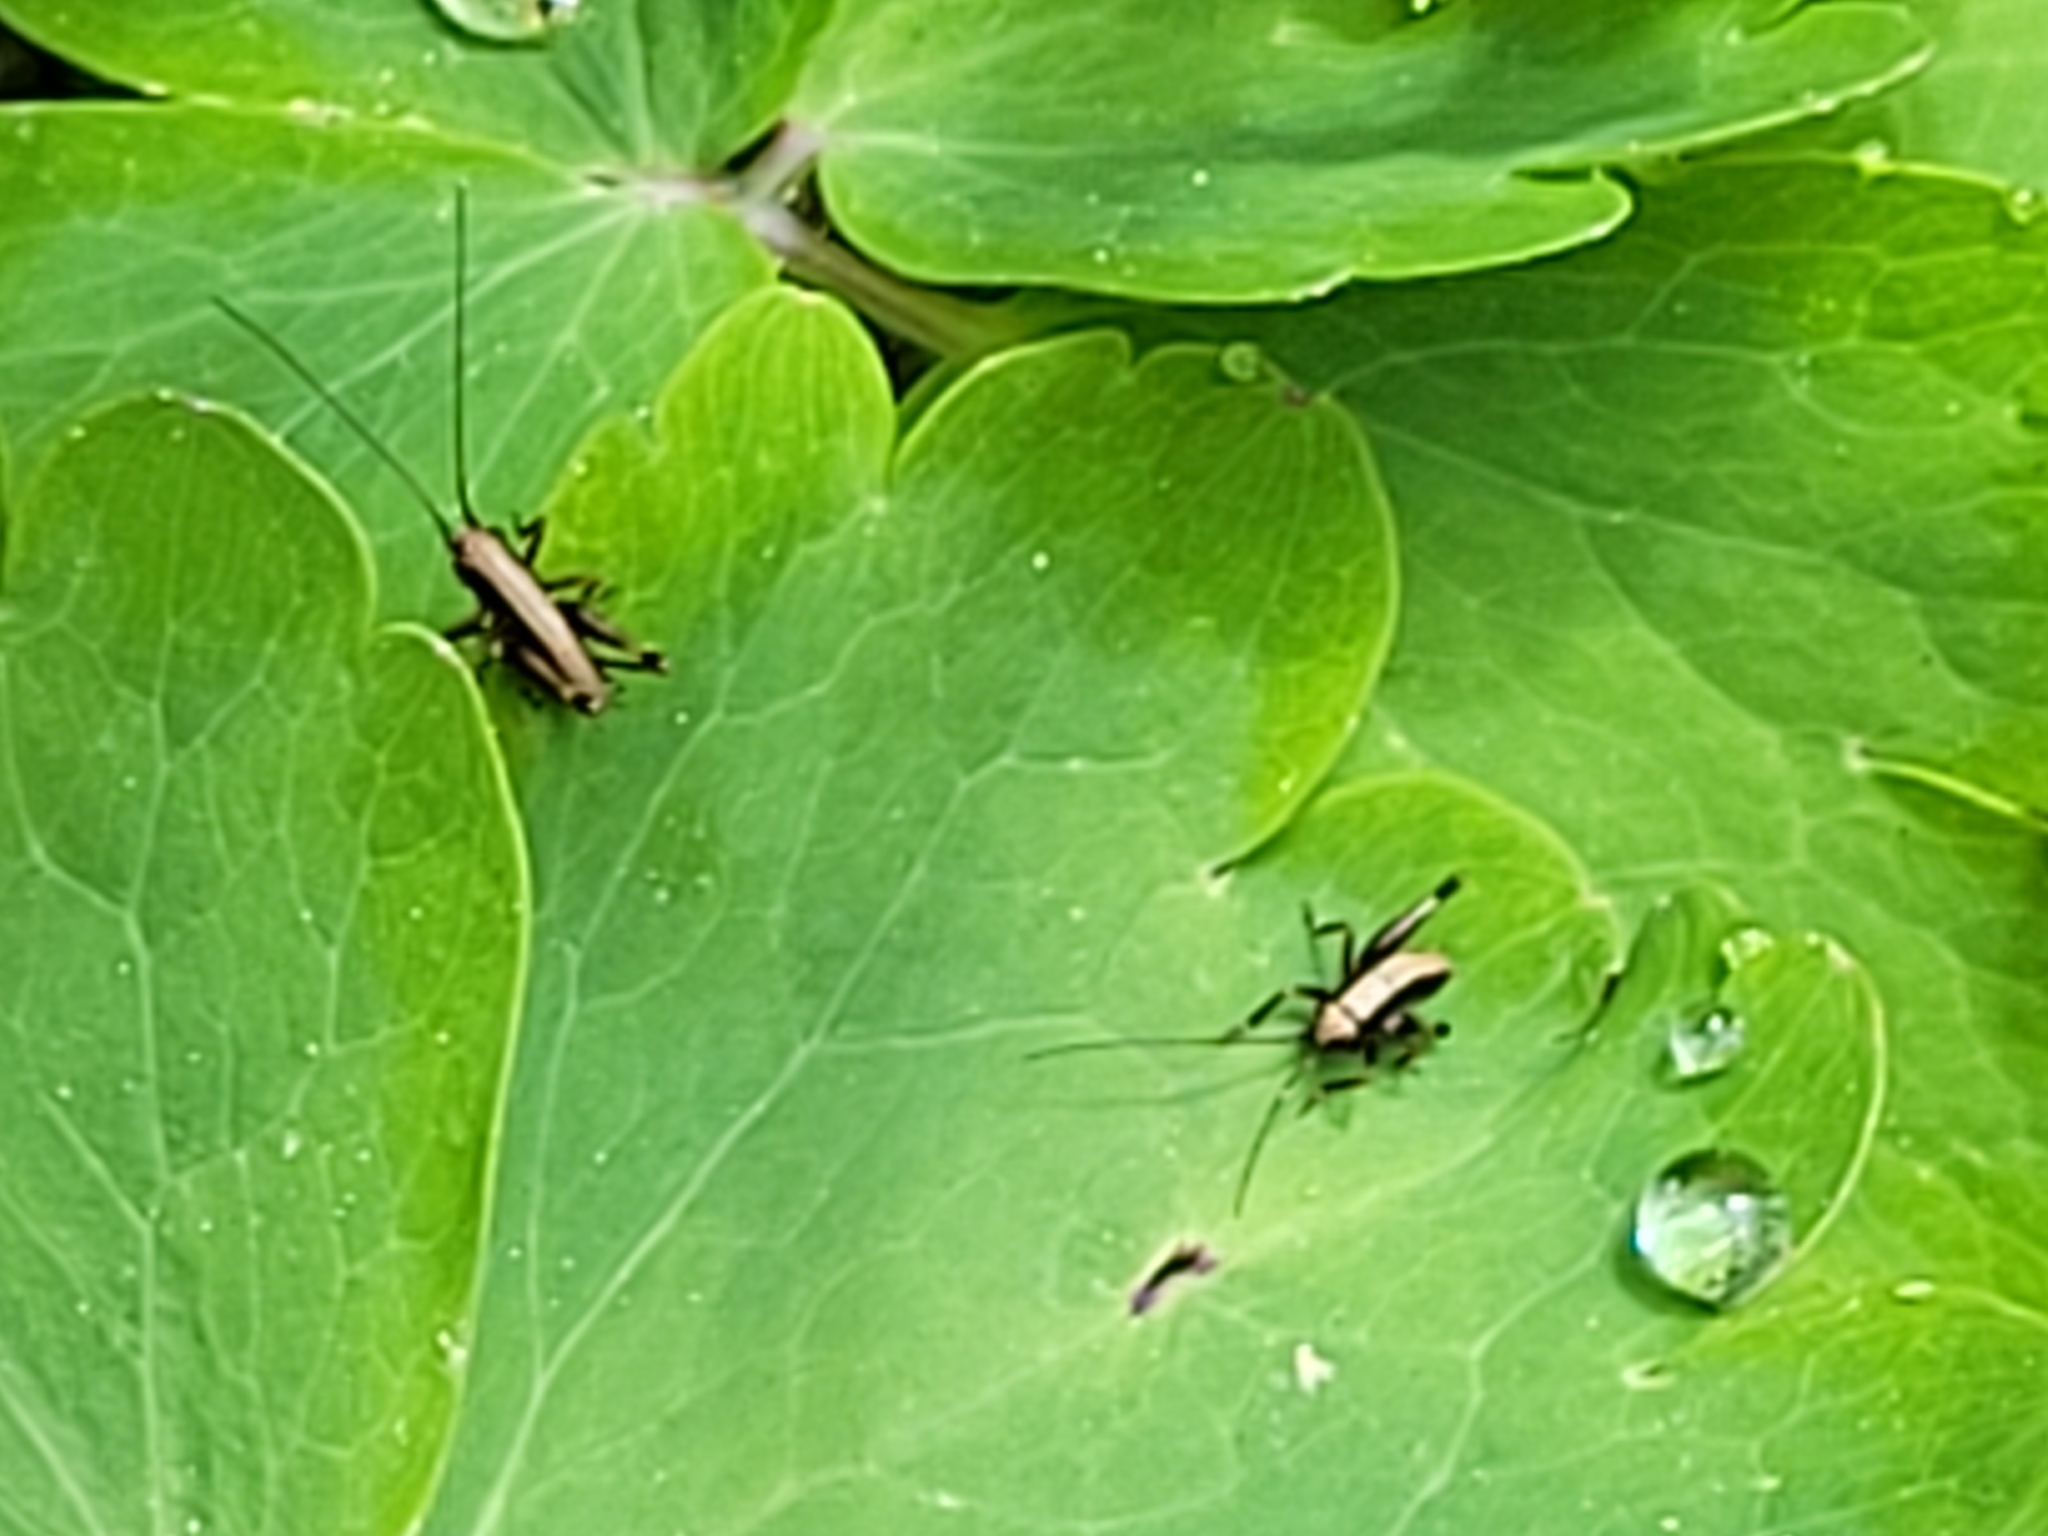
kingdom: Animalia
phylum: Arthropoda
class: Insecta
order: Orthoptera
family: Tettigoniidae
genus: Pholidoptera
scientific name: Pholidoptera griseoaptera
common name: Dark bush-cricket
